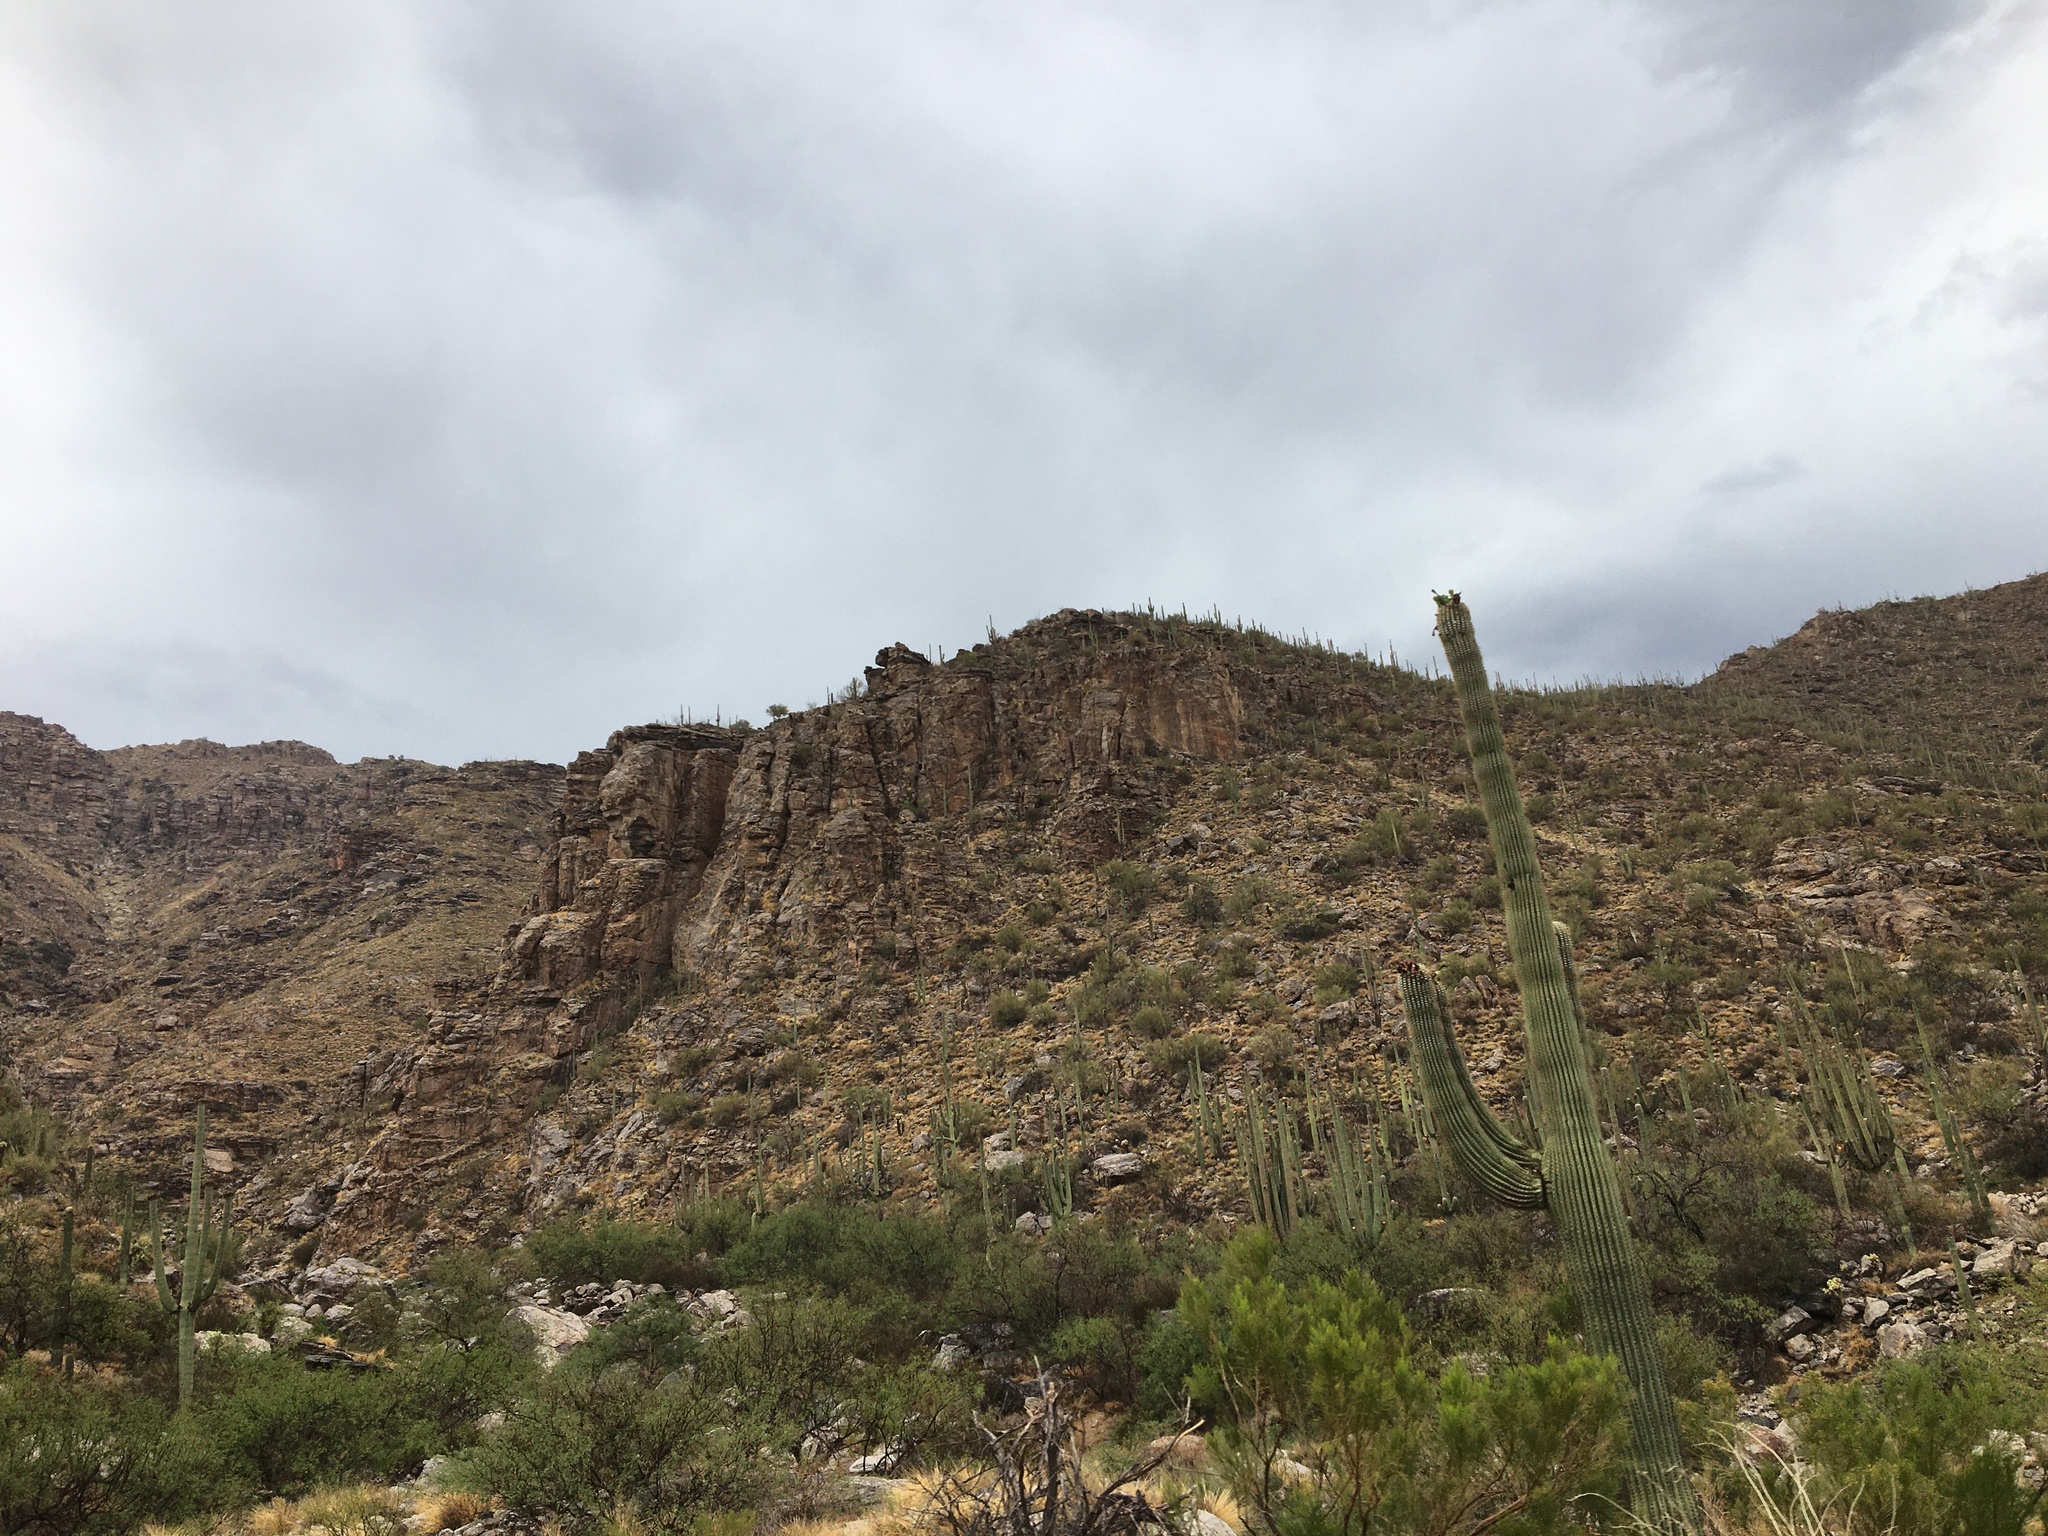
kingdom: Plantae
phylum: Tracheophyta
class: Magnoliopsida
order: Caryophyllales
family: Cactaceae
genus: Carnegiea
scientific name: Carnegiea gigantea
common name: Saguaro
